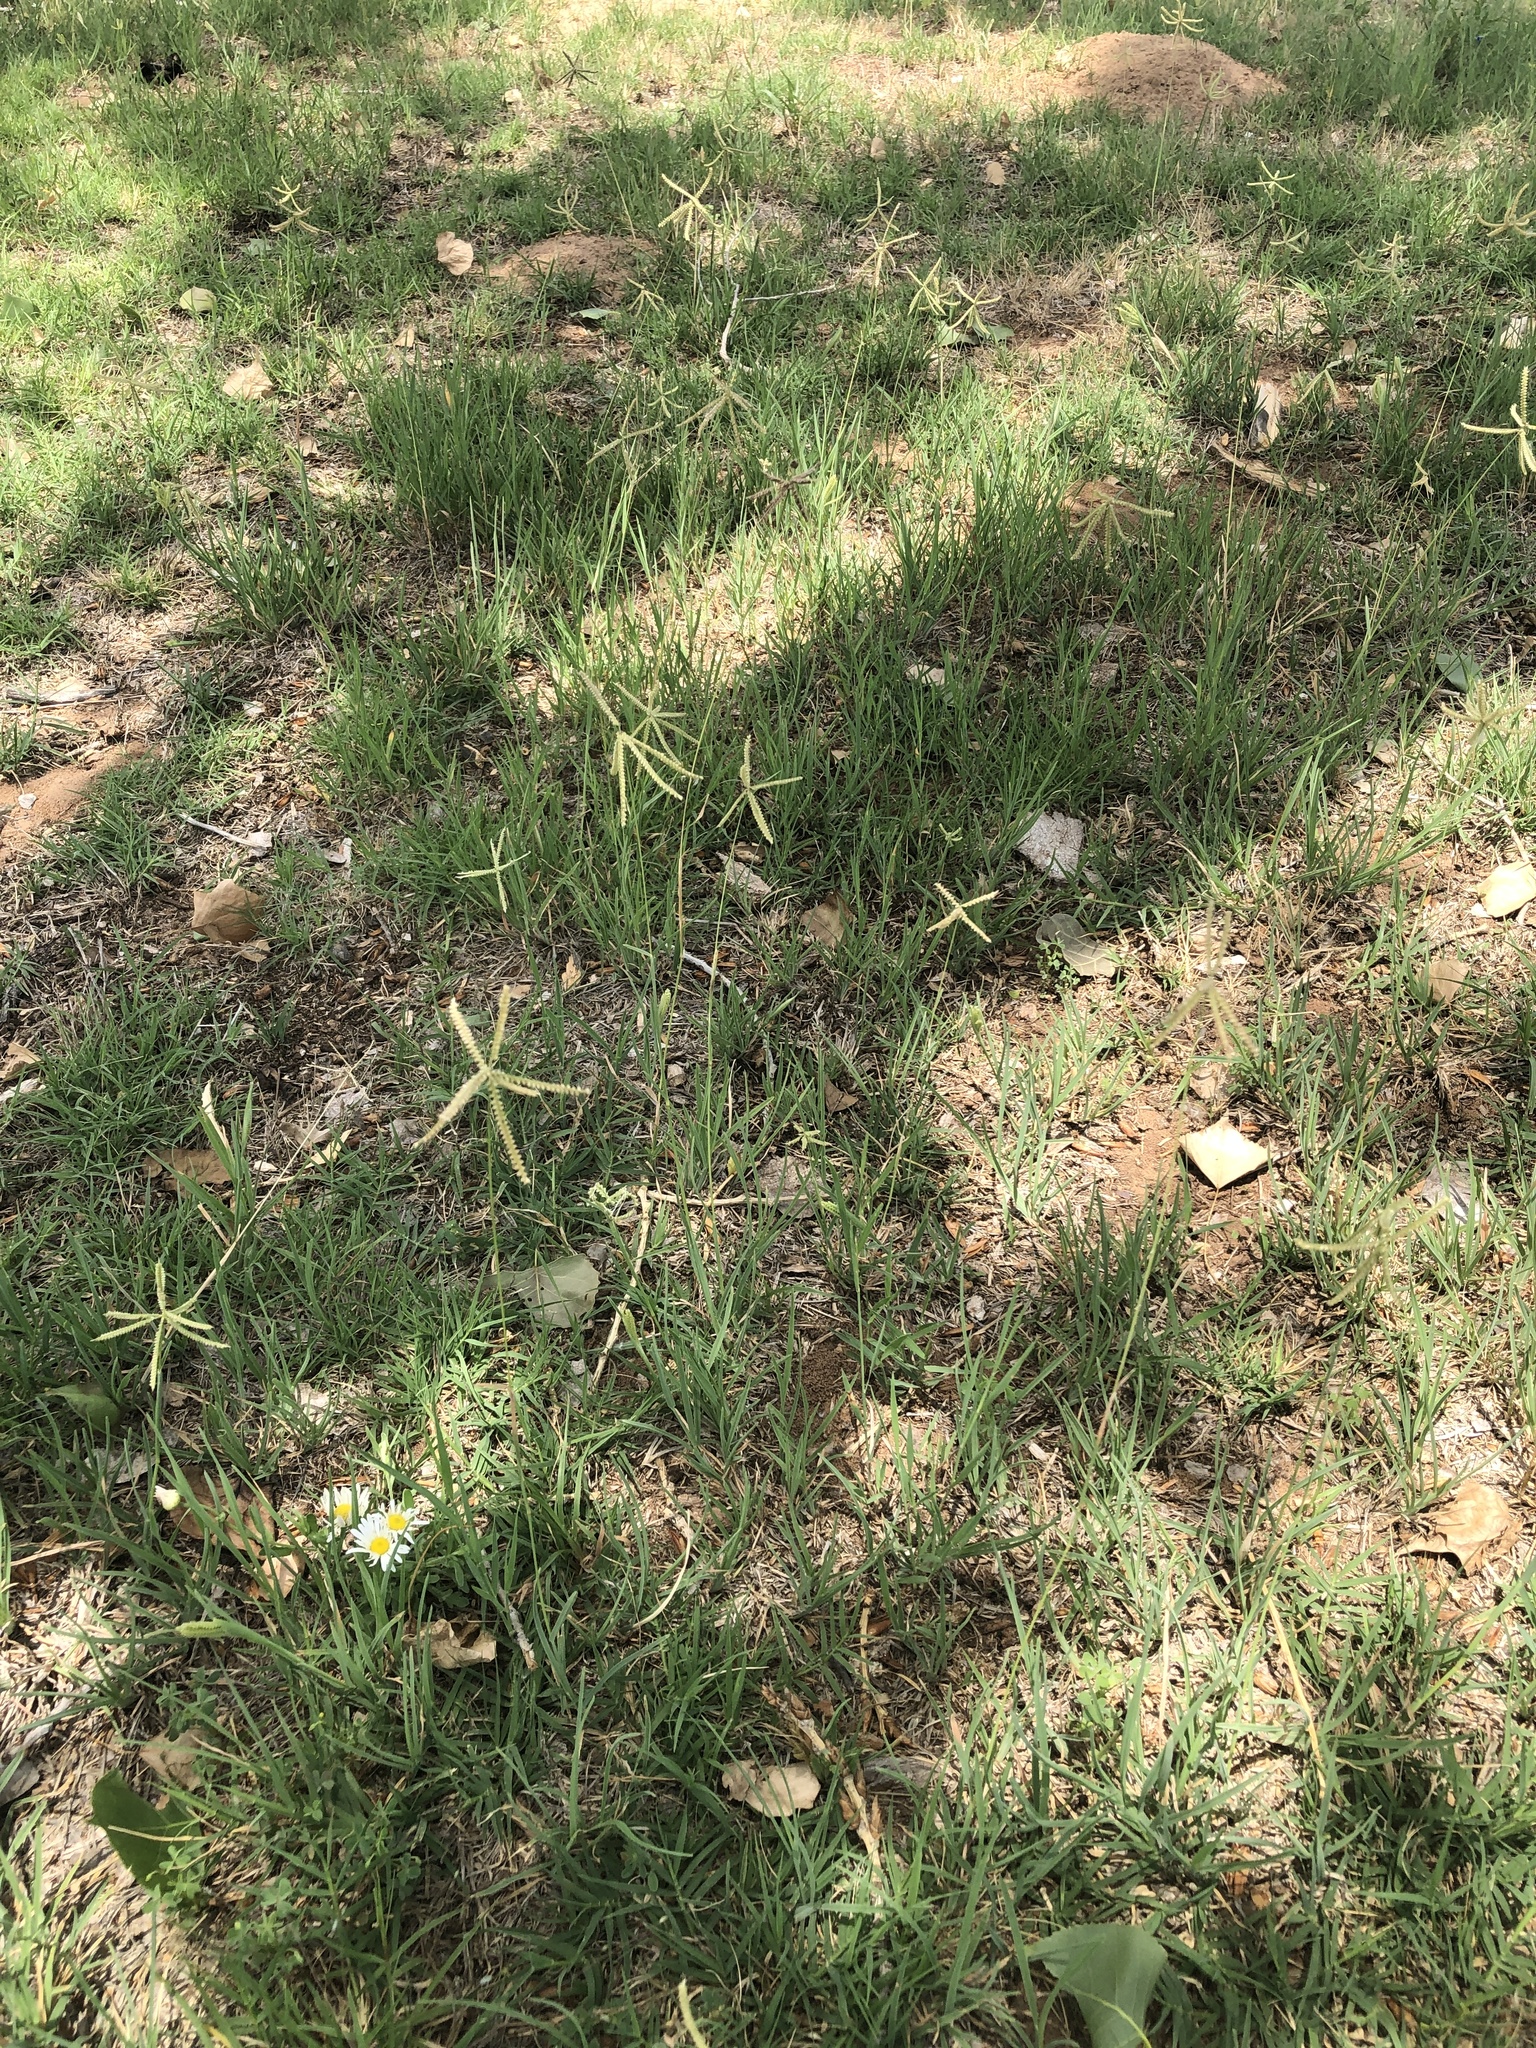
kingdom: Plantae
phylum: Tracheophyta
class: Liliopsida
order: Poales
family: Poaceae
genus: Chloris
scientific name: Chloris cucullata
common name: Hooded windmill grass
